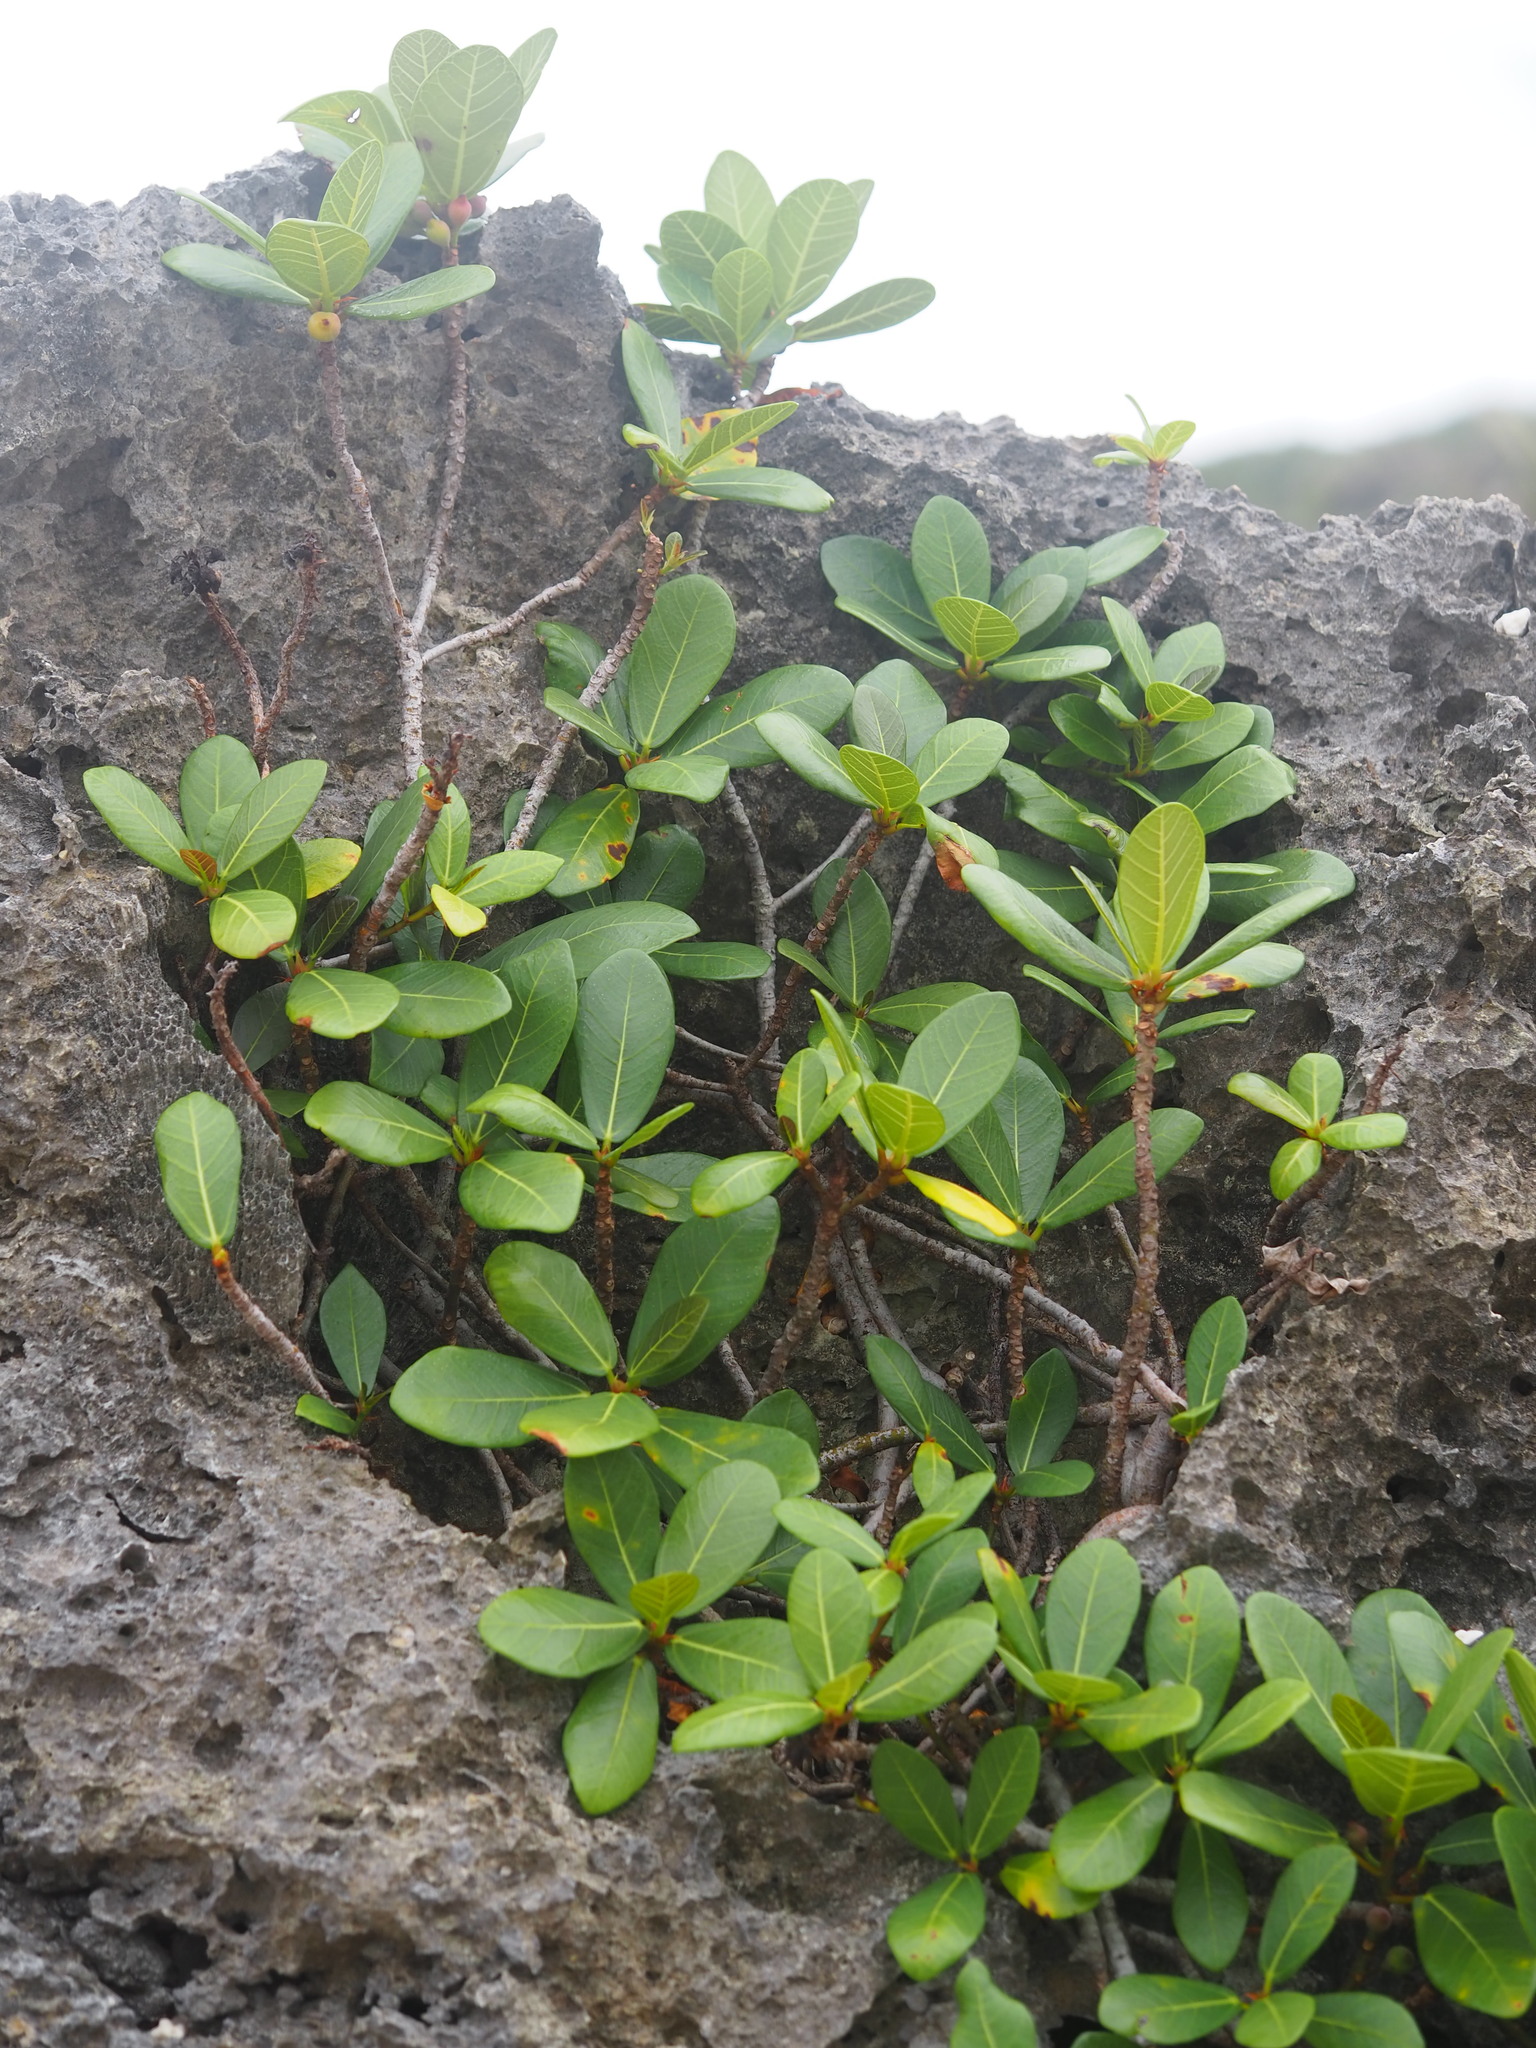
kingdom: Plantae
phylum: Tracheophyta
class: Magnoliopsida
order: Rosales
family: Moraceae
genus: Ficus
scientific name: Ficus pedunculosa
